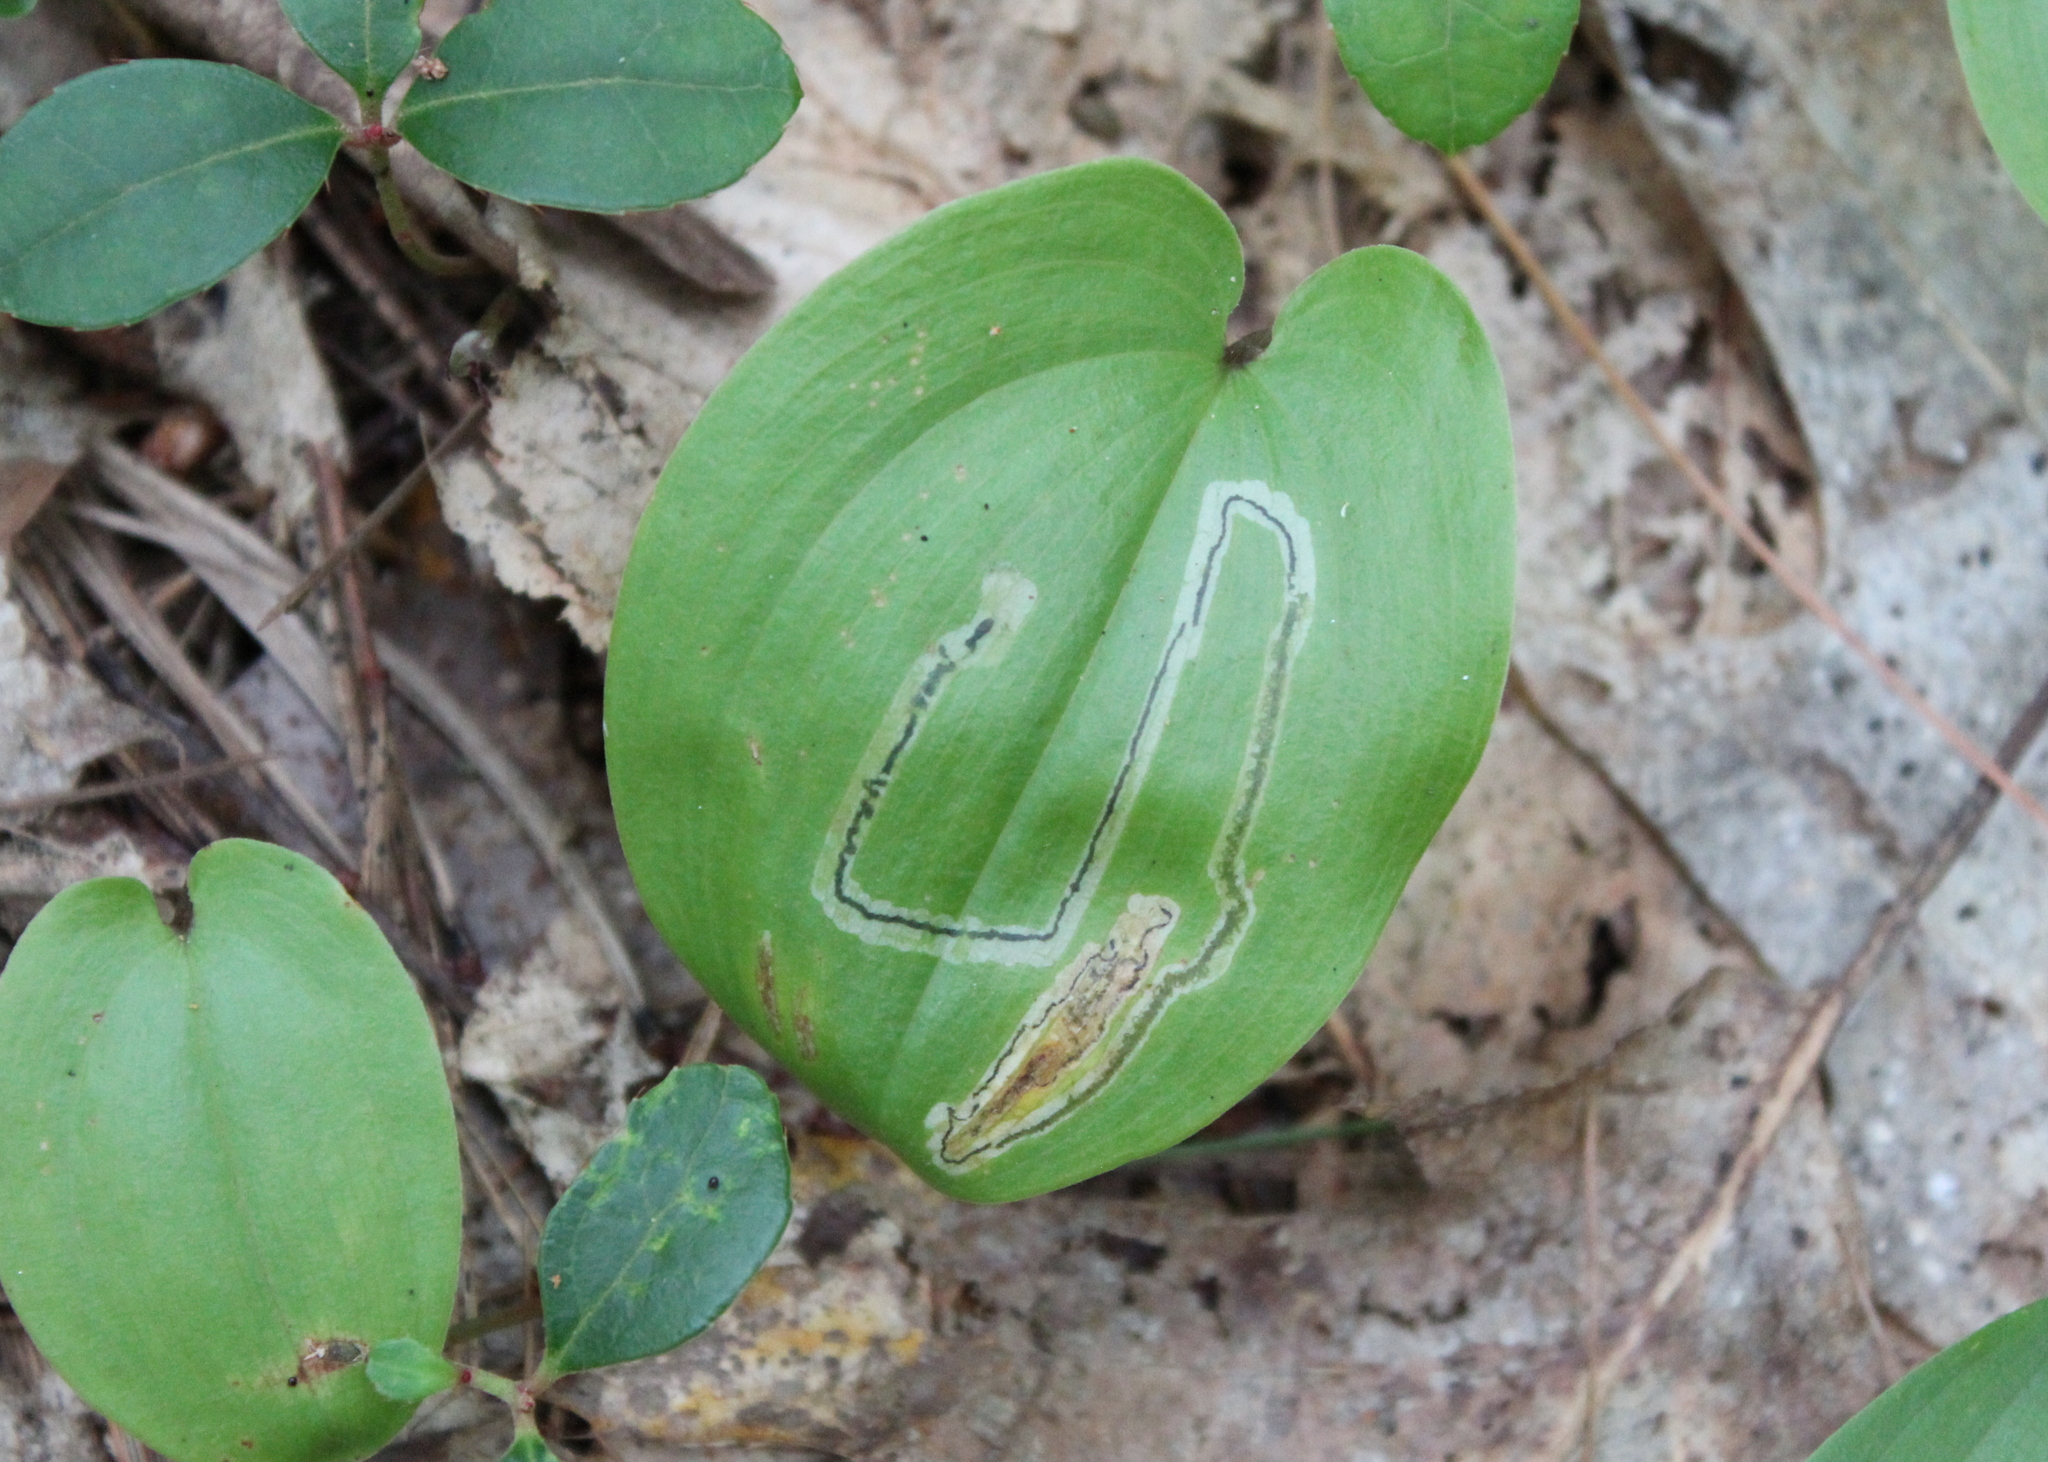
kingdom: Plantae
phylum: Tracheophyta
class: Liliopsida
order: Asparagales
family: Asparagaceae
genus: Maianthemum
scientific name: Maianthemum canadense
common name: False lily-of-the-valley
